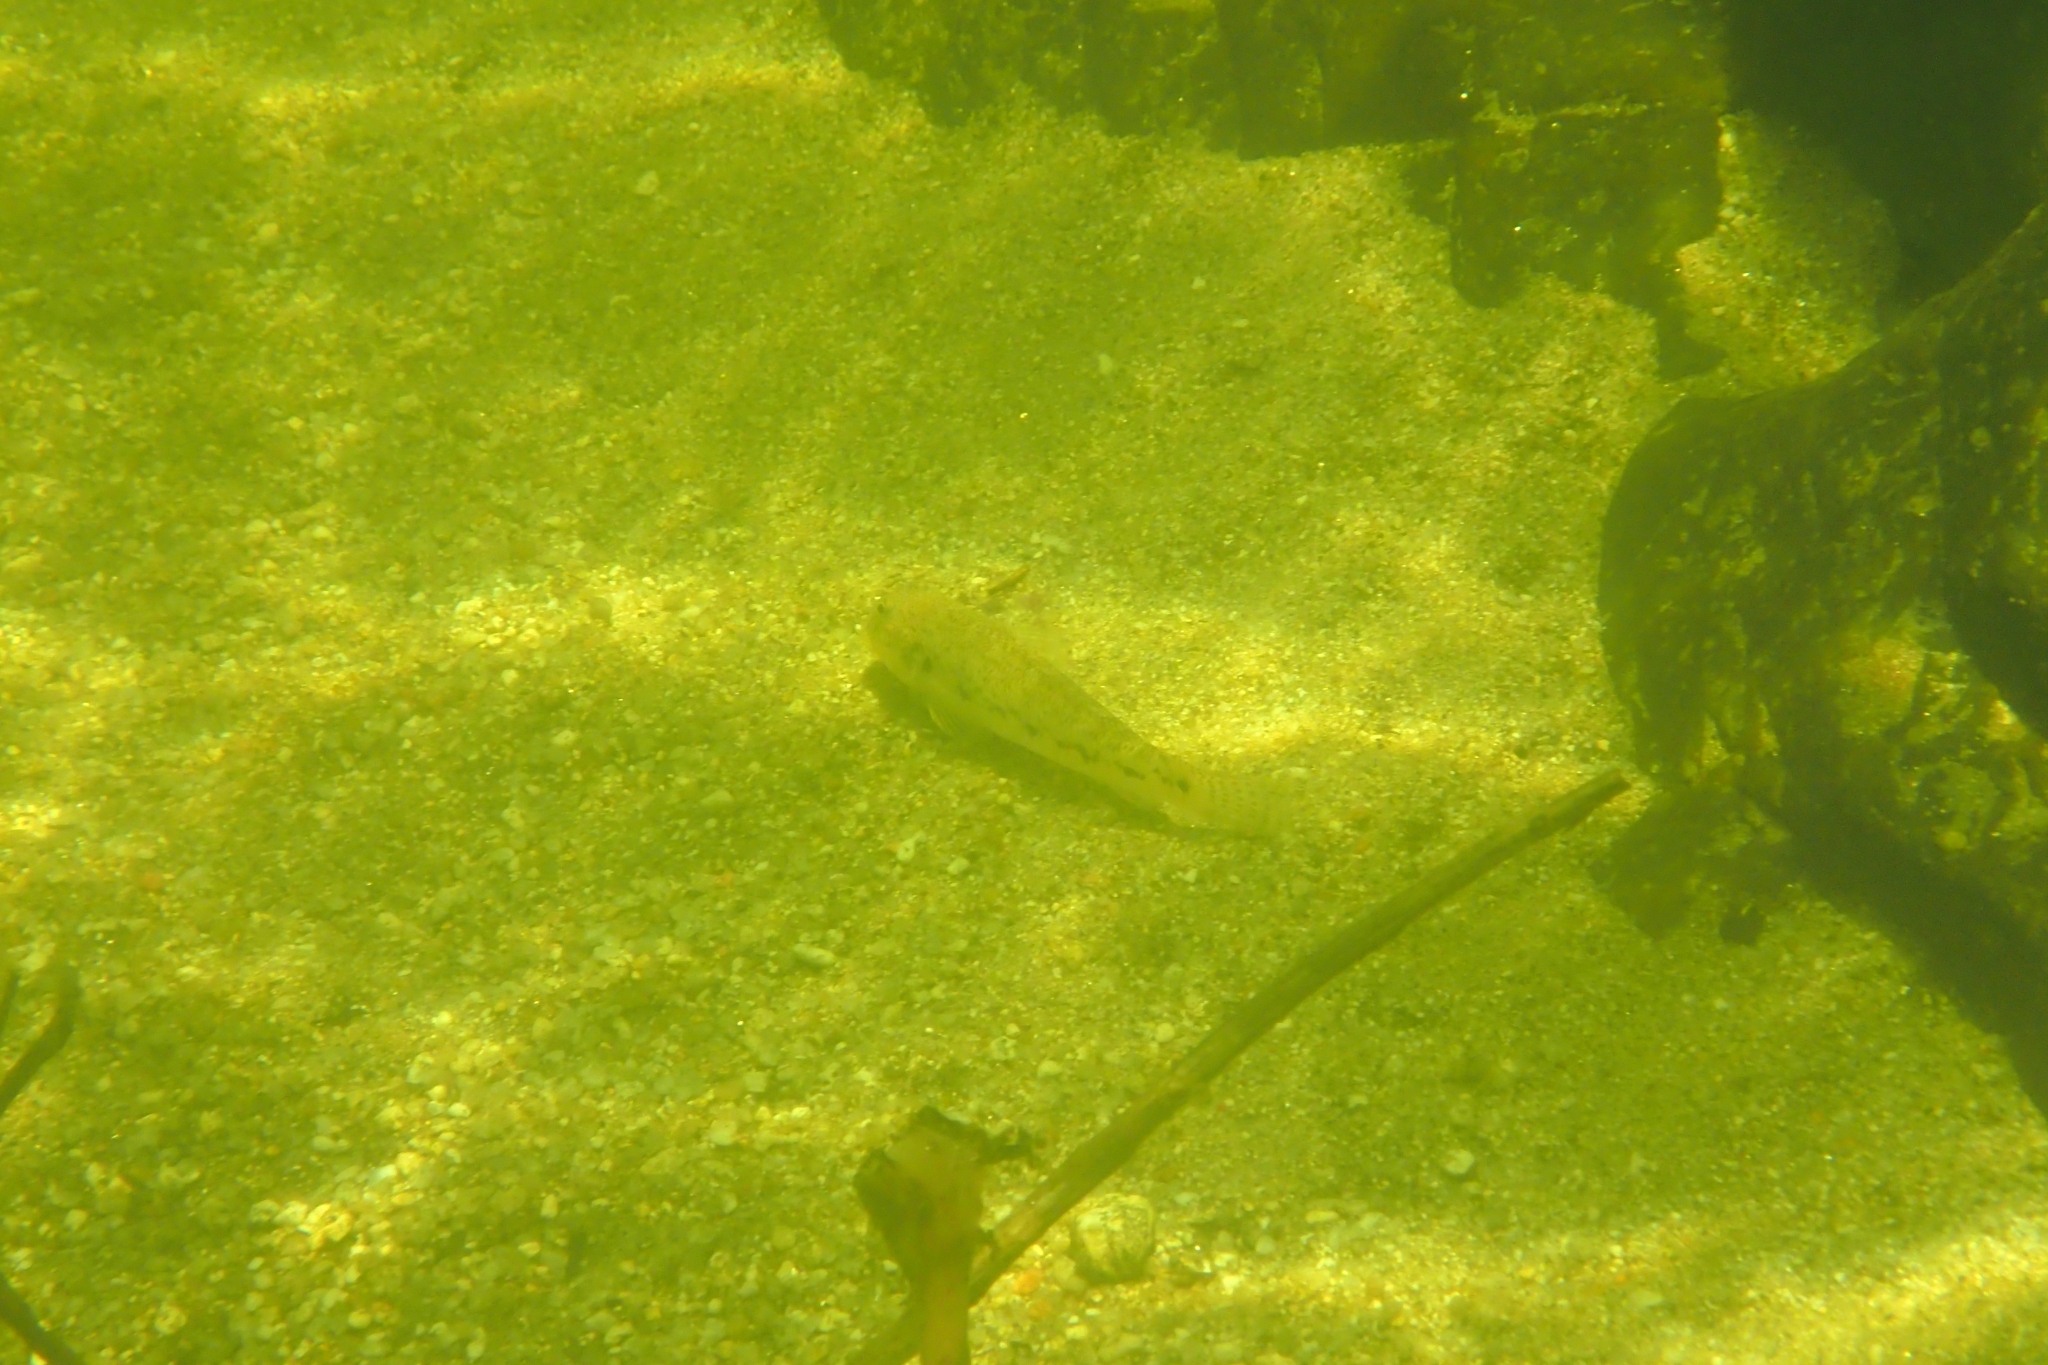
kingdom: Animalia
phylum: Chordata
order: Perciformes
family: Gobiidae
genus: Awaous
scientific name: Awaous acritosus
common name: Roman nose goby
